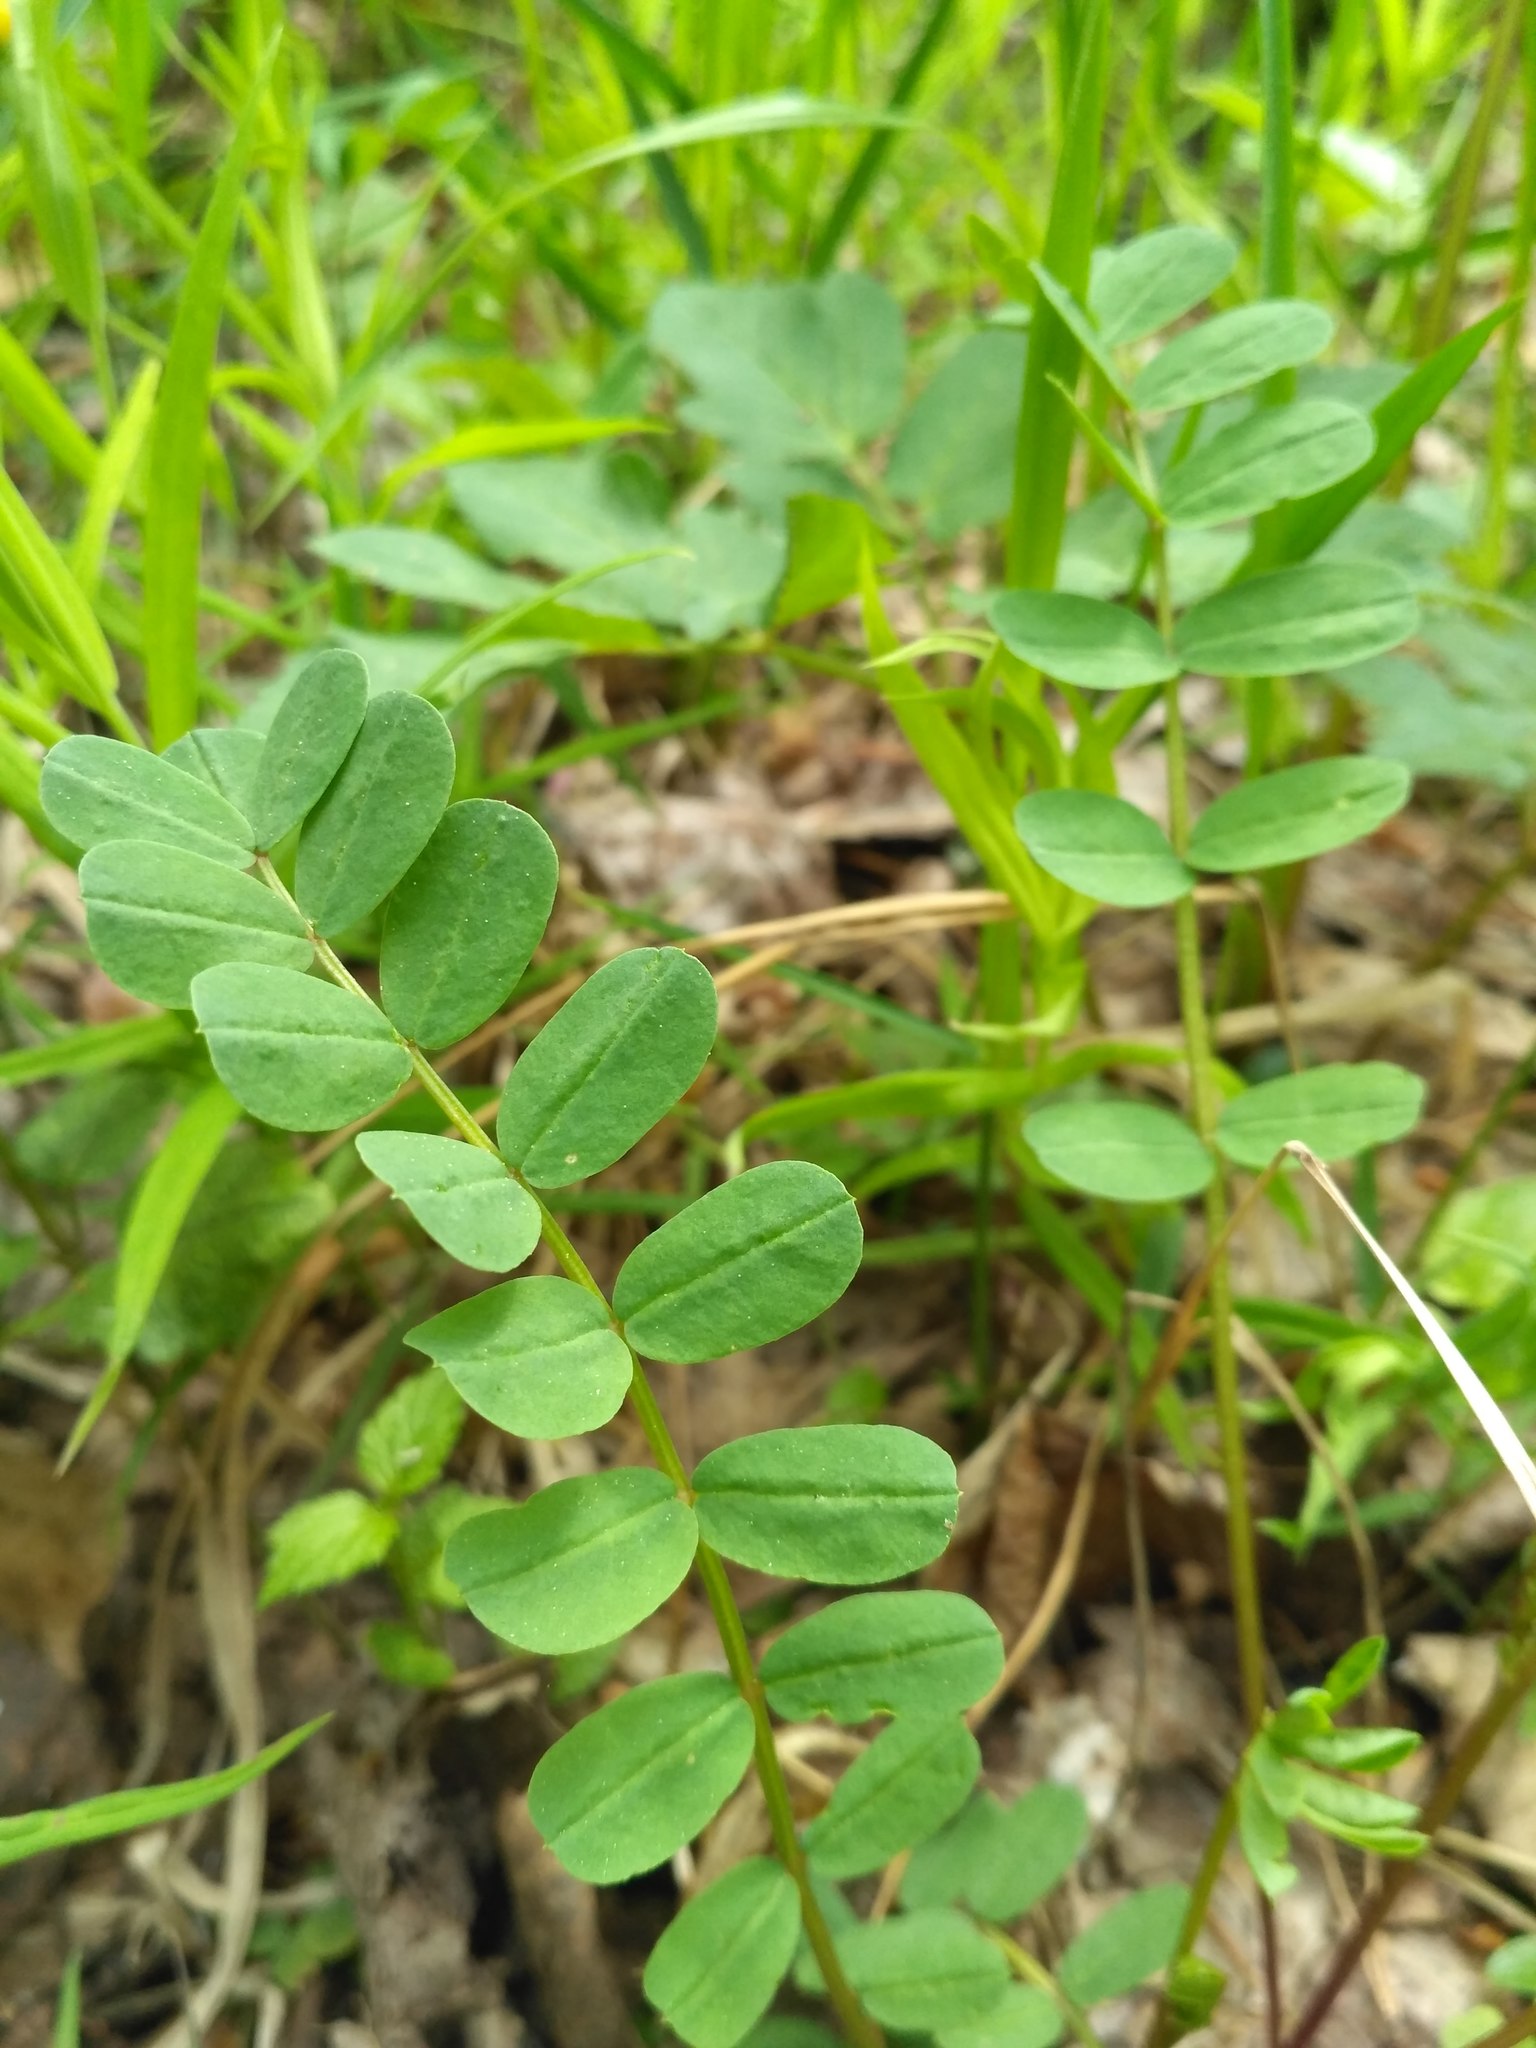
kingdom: Plantae
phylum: Tracheophyta
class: Magnoliopsida
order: Fabales
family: Fabaceae
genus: Coronilla
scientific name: Coronilla varia
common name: Crownvetch
